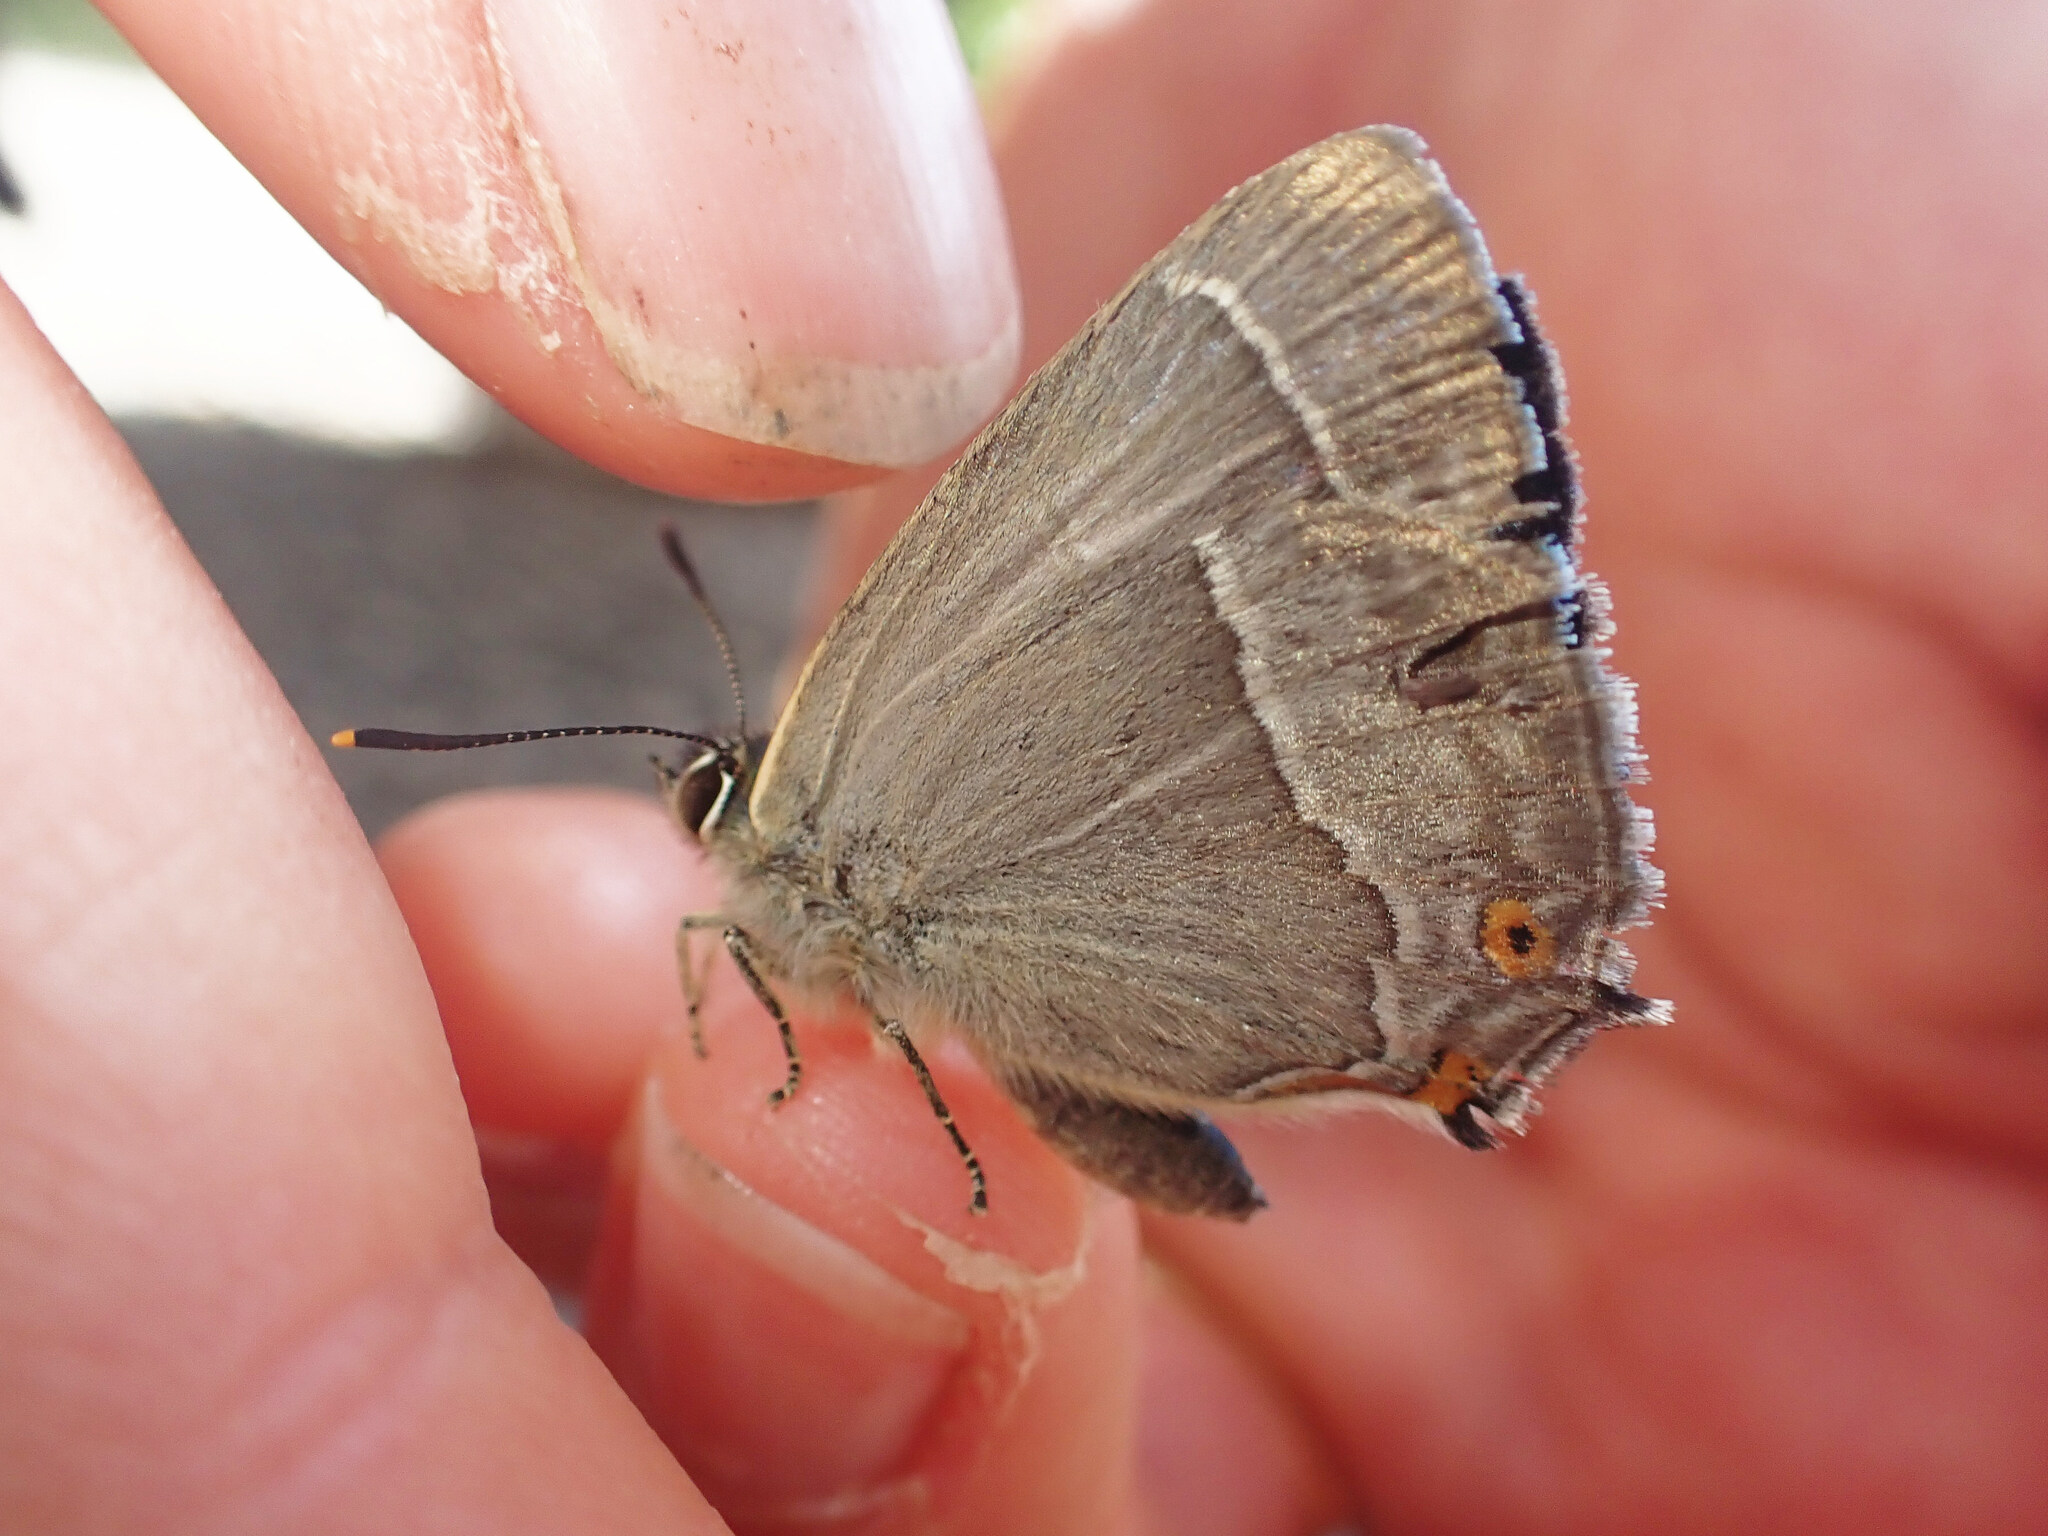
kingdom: Animalia
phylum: Arthropoda
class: Insecta
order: Lepidoptera
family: Lycaenidae
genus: Quercusia
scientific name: Quercusia quercus
